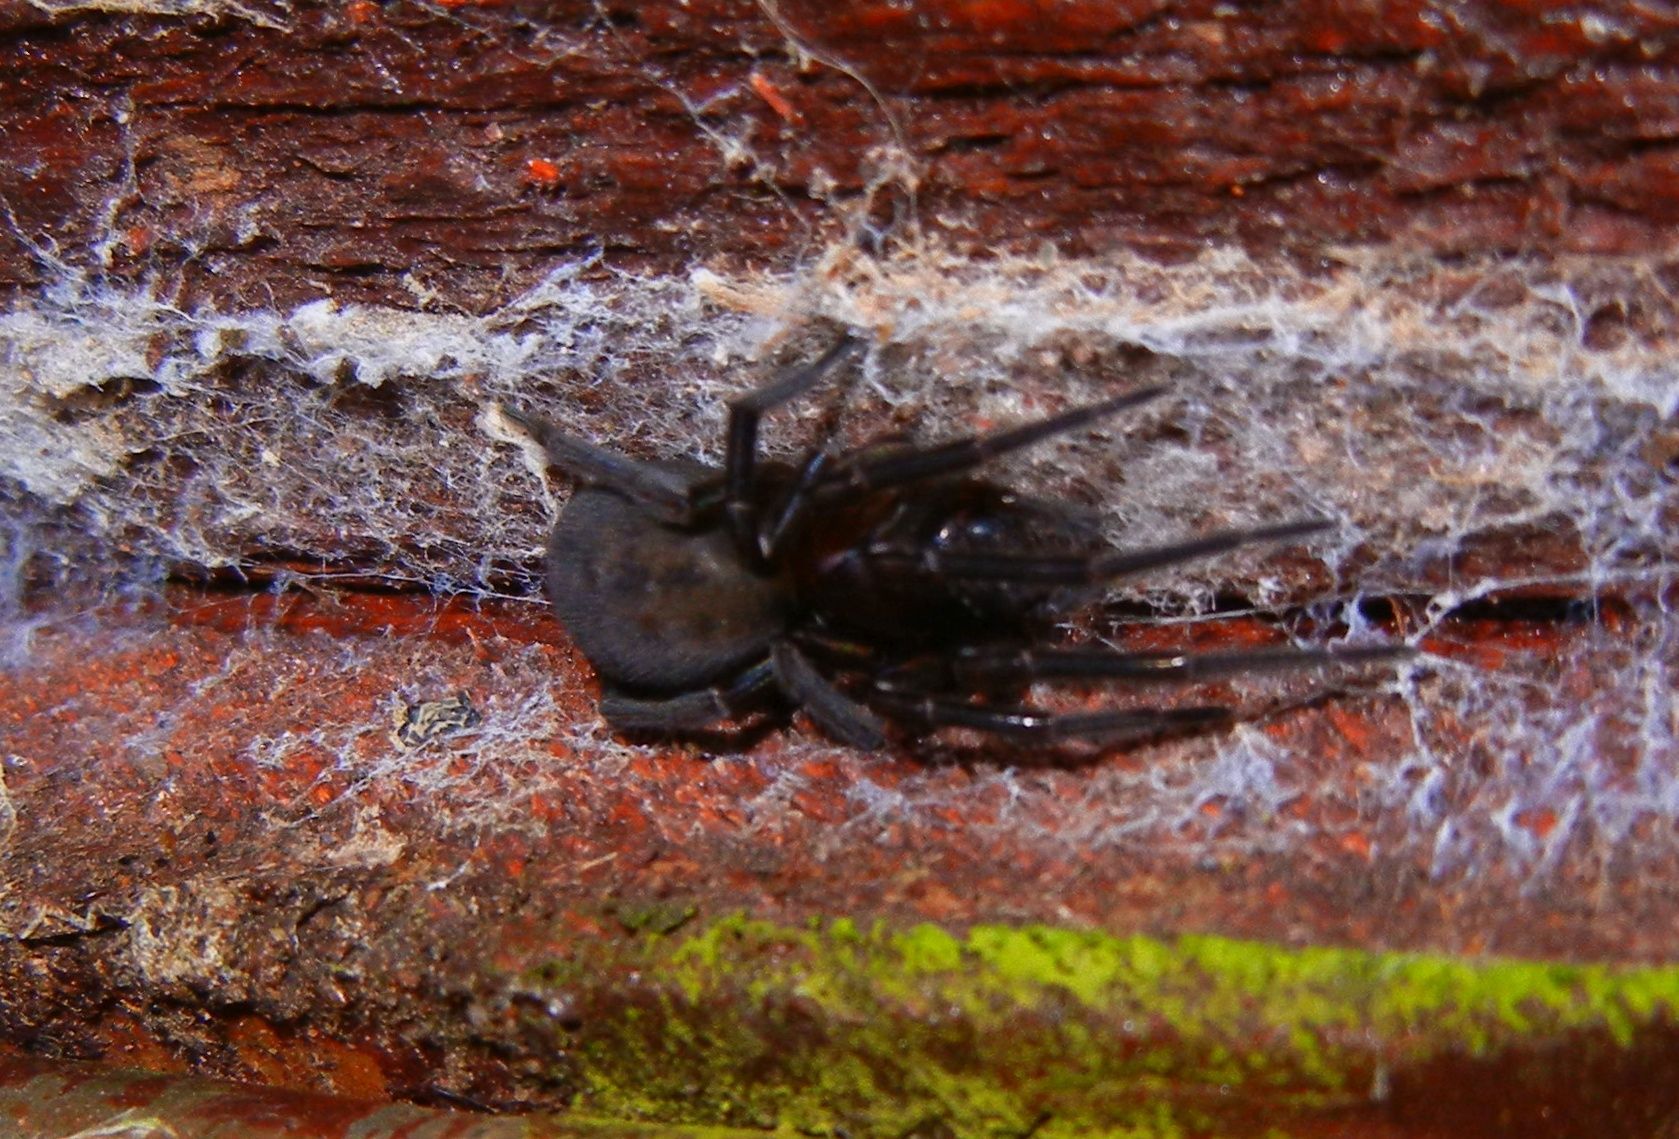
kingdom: Animalia
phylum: Arthropoda
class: Arachnida
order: Araneae
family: Amaurobiidae
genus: Amaurobius
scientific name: Amaurobius ferox
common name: Black laceweaver
